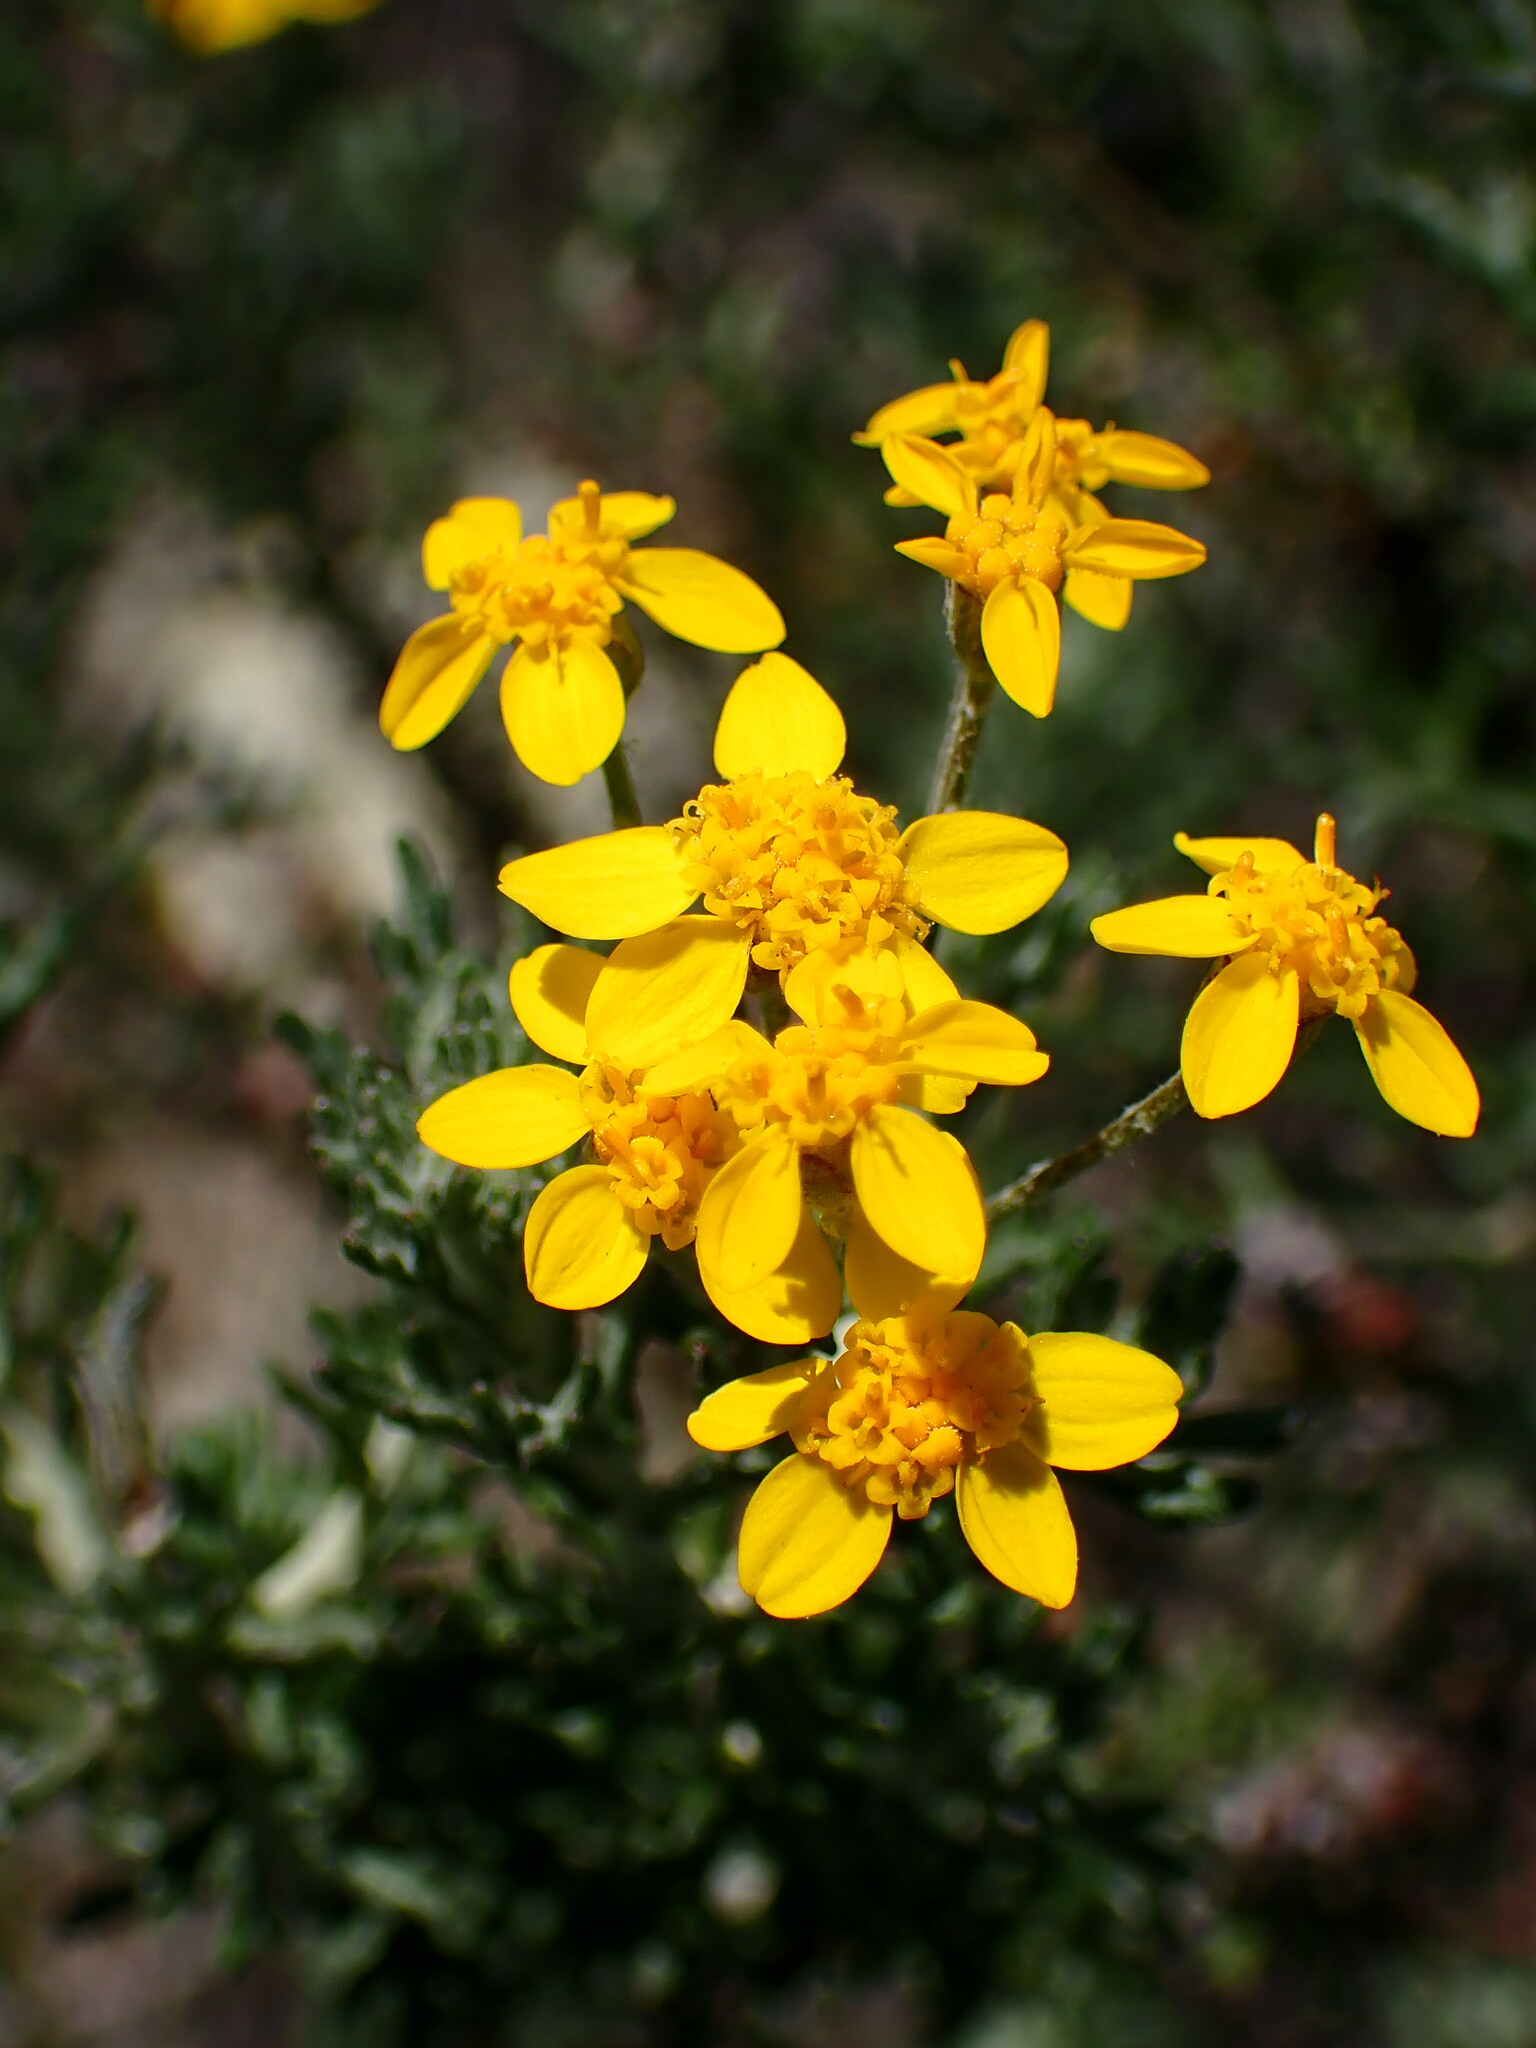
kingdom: Plantae
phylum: Tracheophyta
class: Magnoliopsida
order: Asterales
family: Asteraceae
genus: Eriophyllum
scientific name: Eriophyllum confertiflorum
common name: Golden-yarrow
